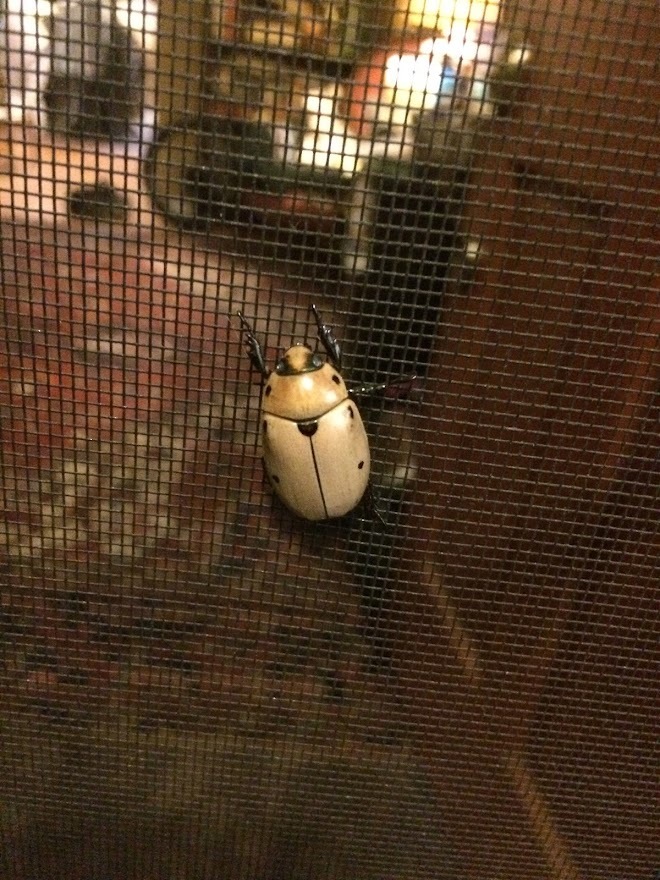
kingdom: Animalia
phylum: Arthropoda
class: Insecta
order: Coleoptera
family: Scarabaeidae
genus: Pelidnota
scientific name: Pelidnota punctata
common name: Grapevine beetle
